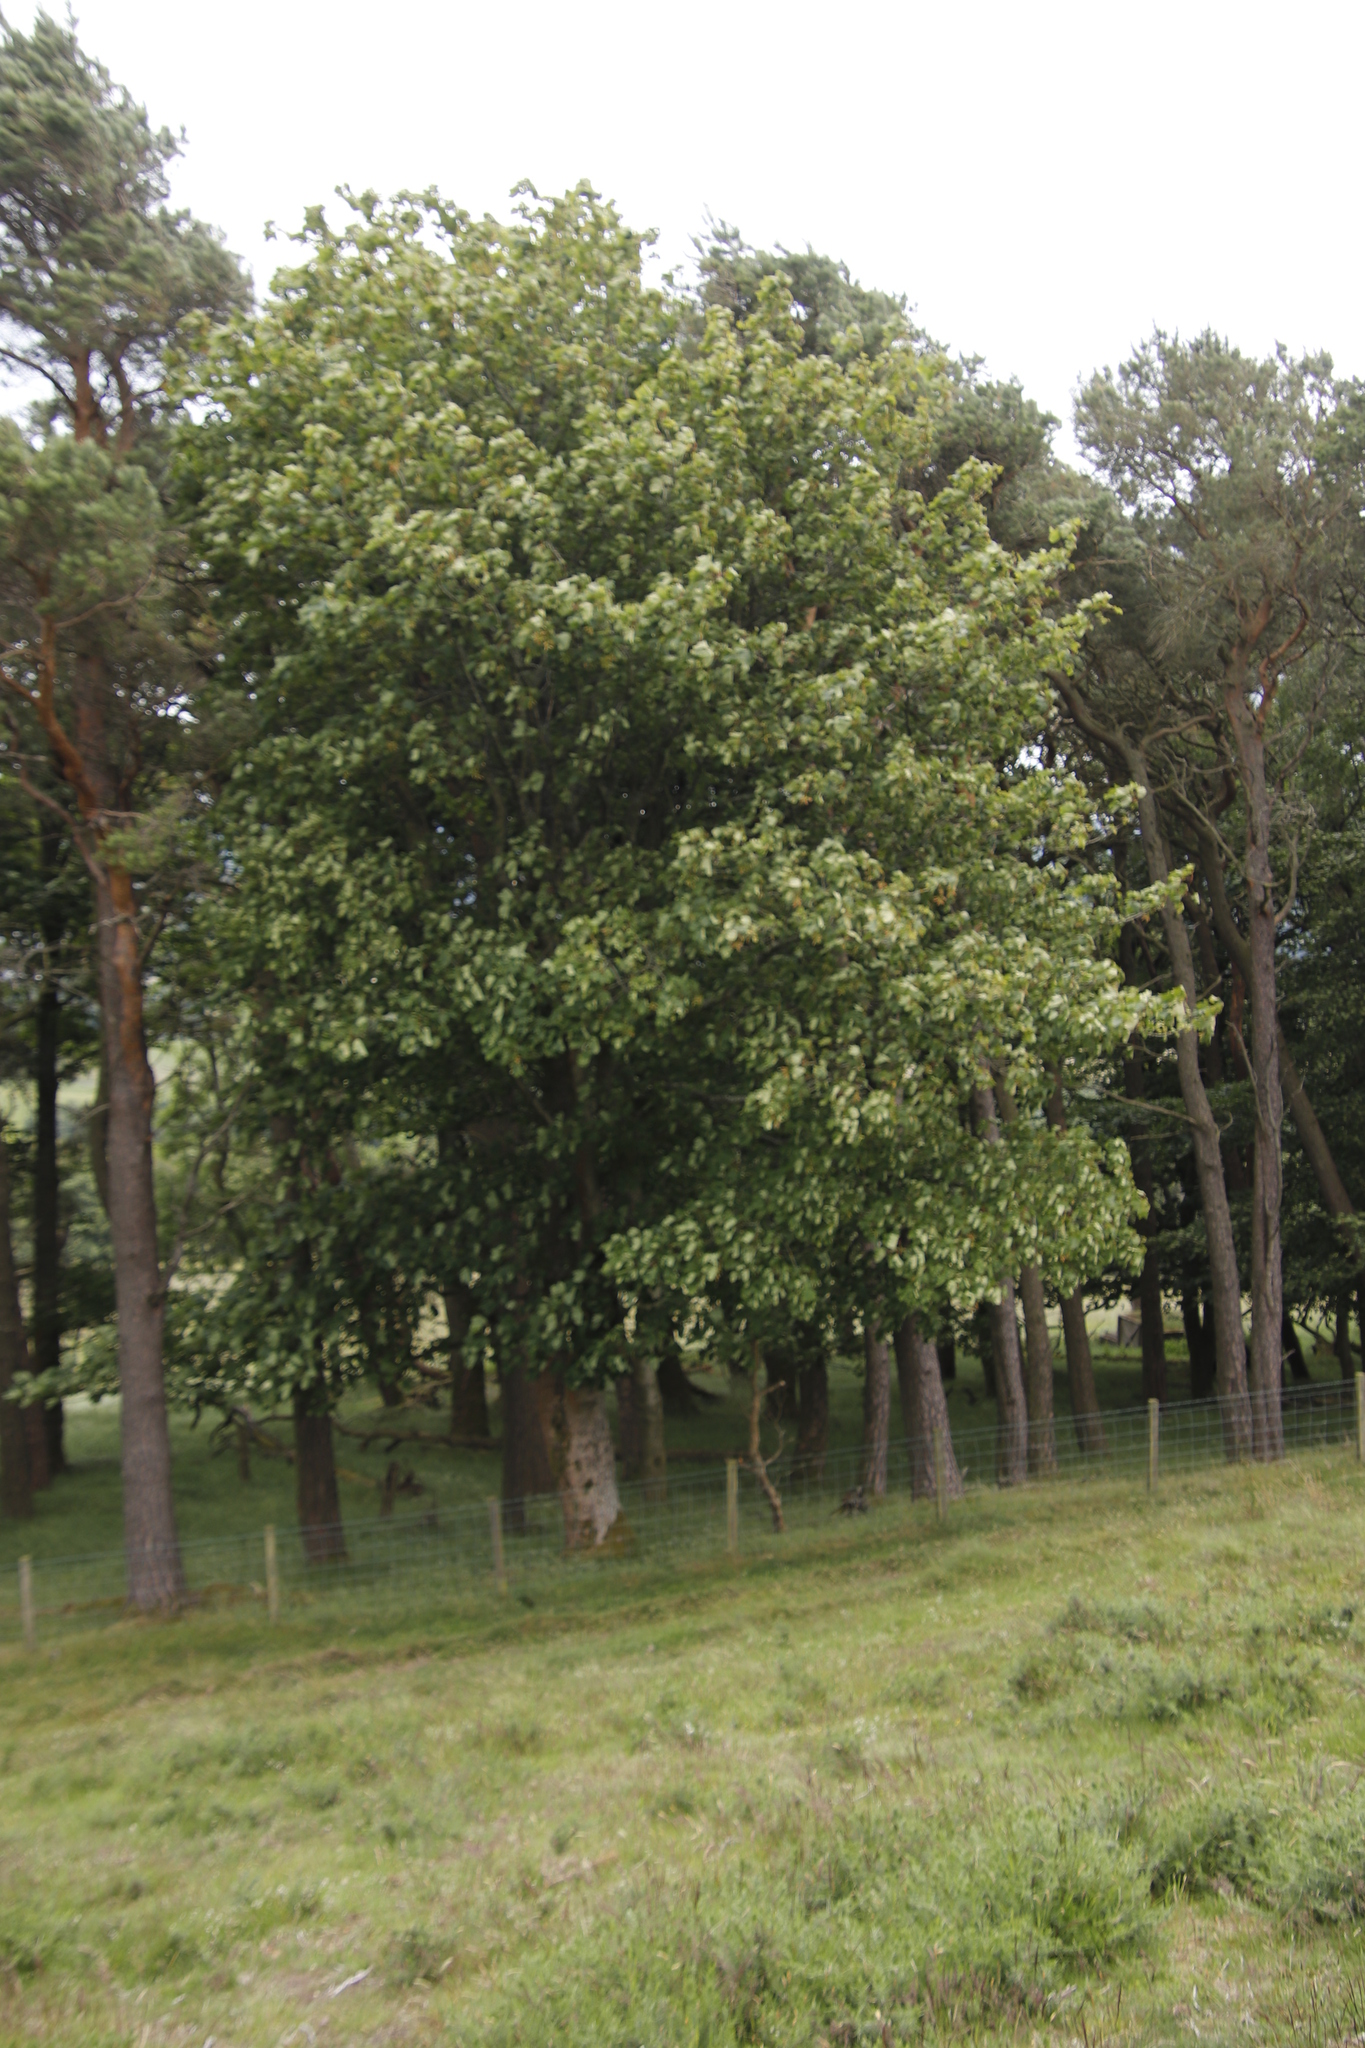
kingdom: Plantae
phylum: Tracheophyta
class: Magnoliopsida
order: Sapindales
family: Sapindaceae
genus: Acer
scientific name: Acer pseudoplatanus
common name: Sycamore
